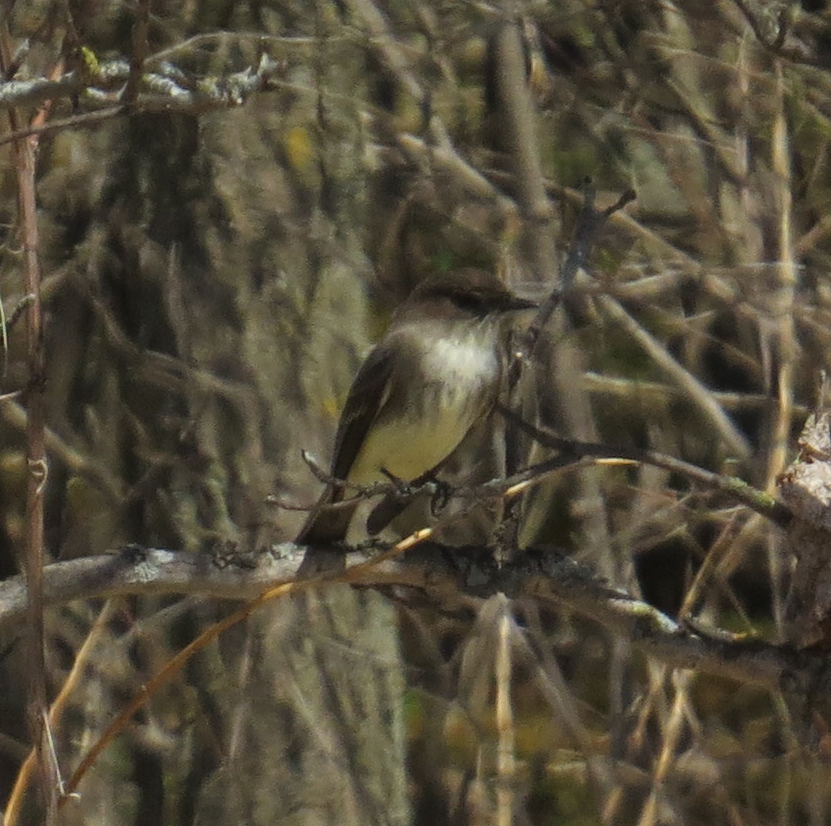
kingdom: Animalia
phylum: Chordata
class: Aves
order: Passeriformes
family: Tyrannidae
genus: Sayornis
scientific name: Sayornis phoebe
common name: Eastern phoebe
